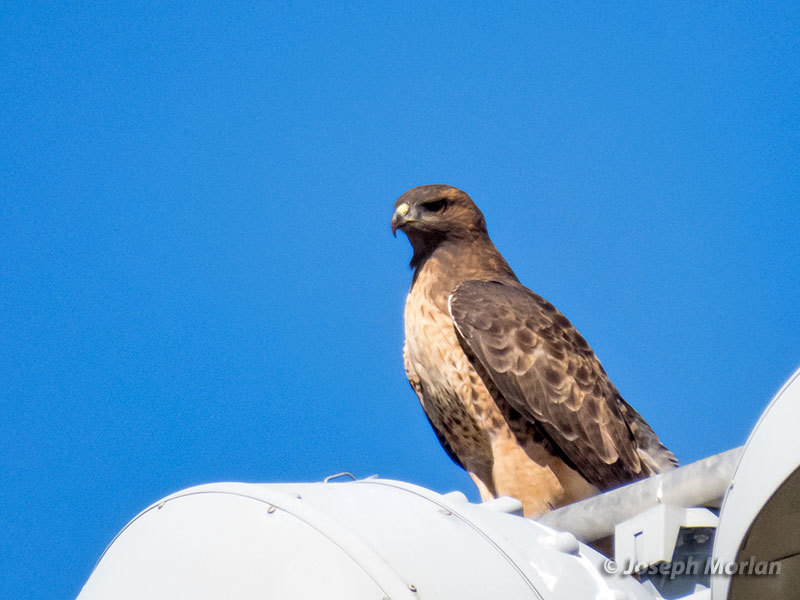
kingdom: Animalia
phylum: Chordata
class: Aves
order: Accipitriformes
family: Accipitridae
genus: Buteo
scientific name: Buteo jamaicensis
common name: Red-tailed hawk
